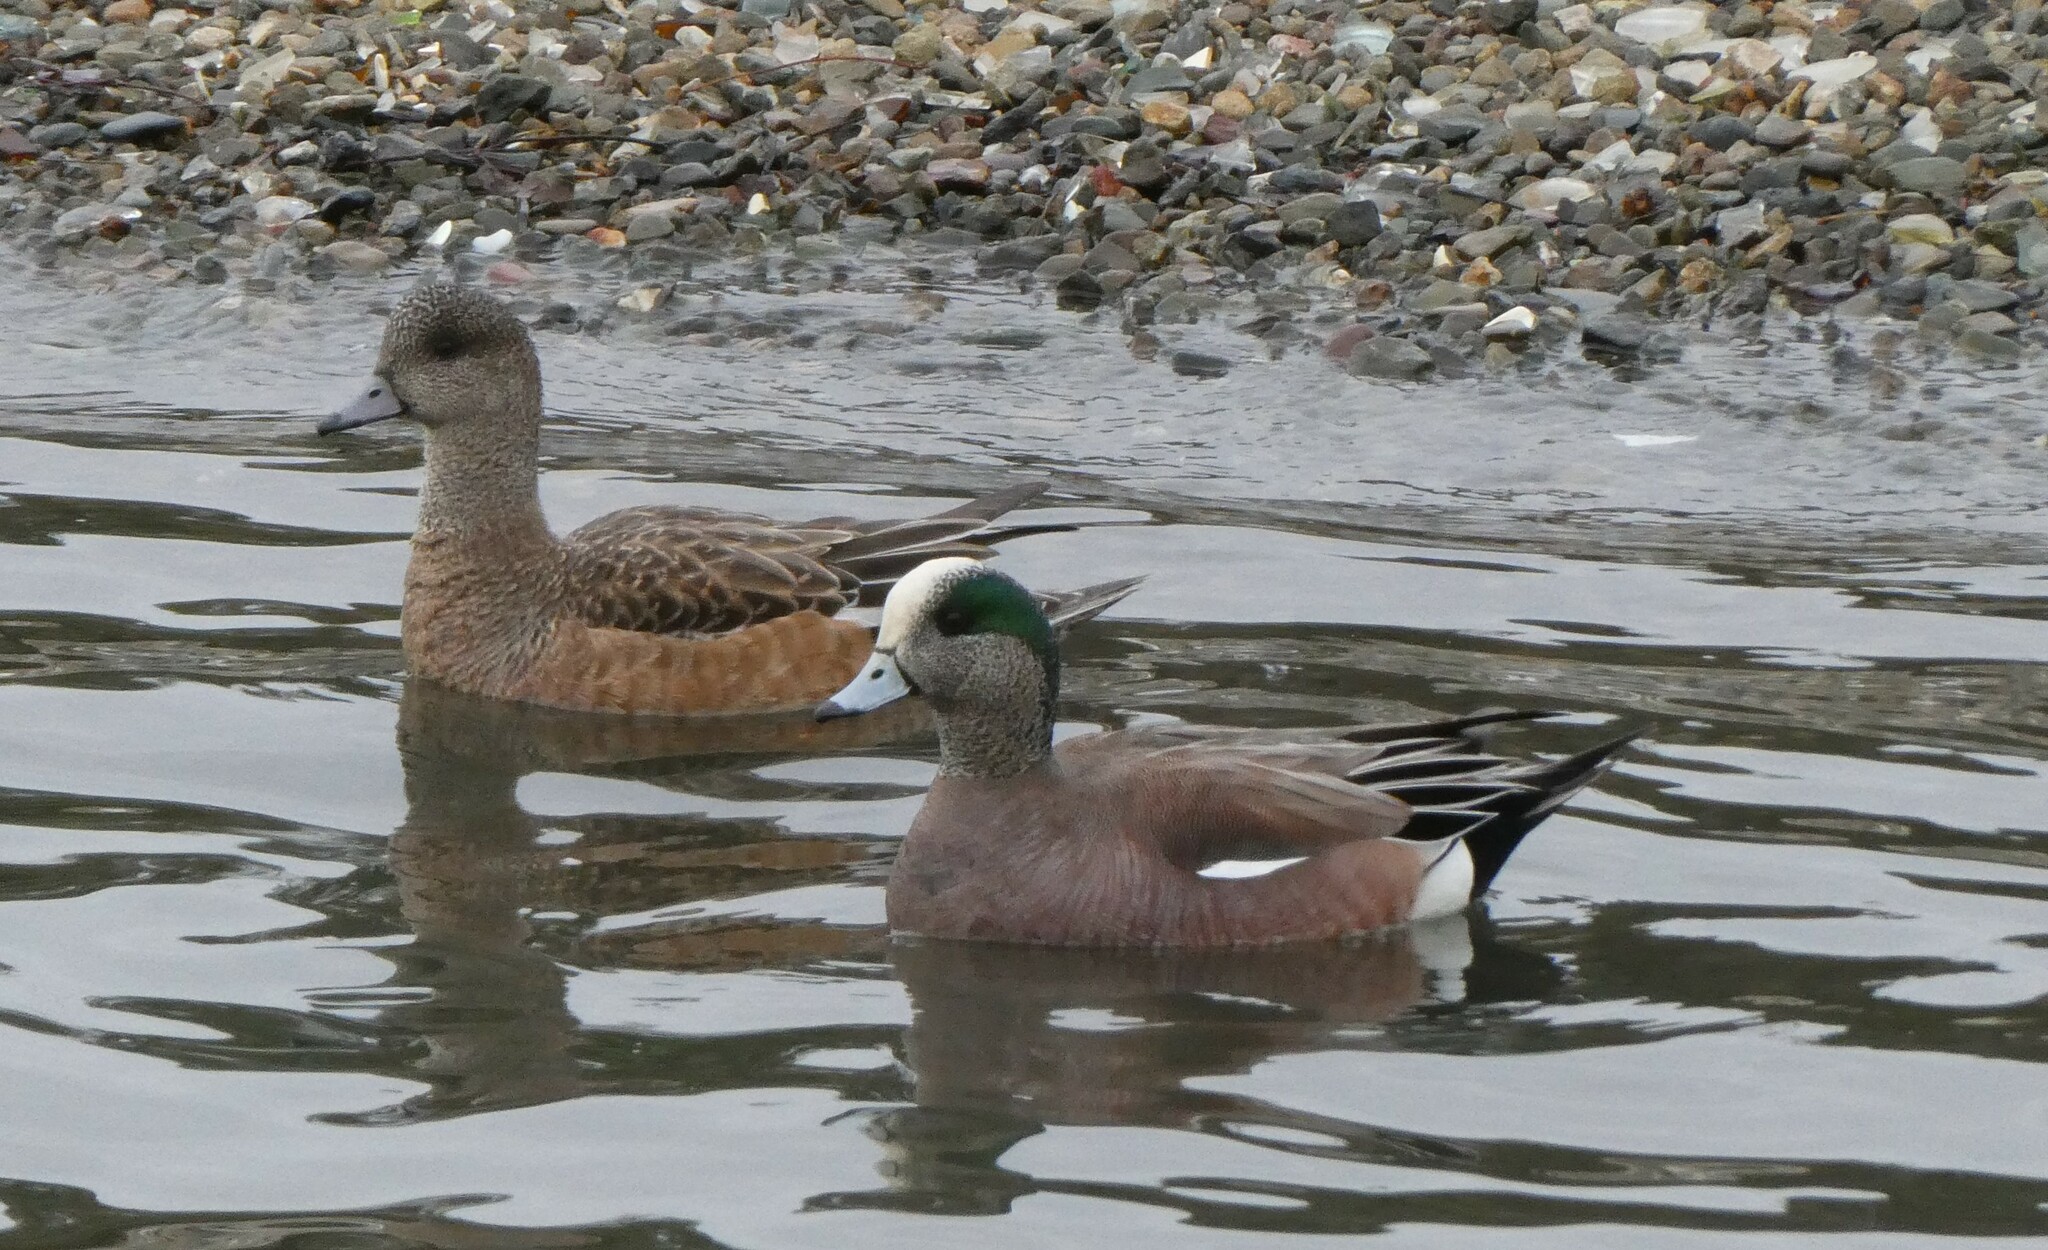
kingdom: Animalia
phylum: Chordata
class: Aves
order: Anseriformes
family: Anatidae
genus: Mareca
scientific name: Mareca americana
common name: American wigeon
